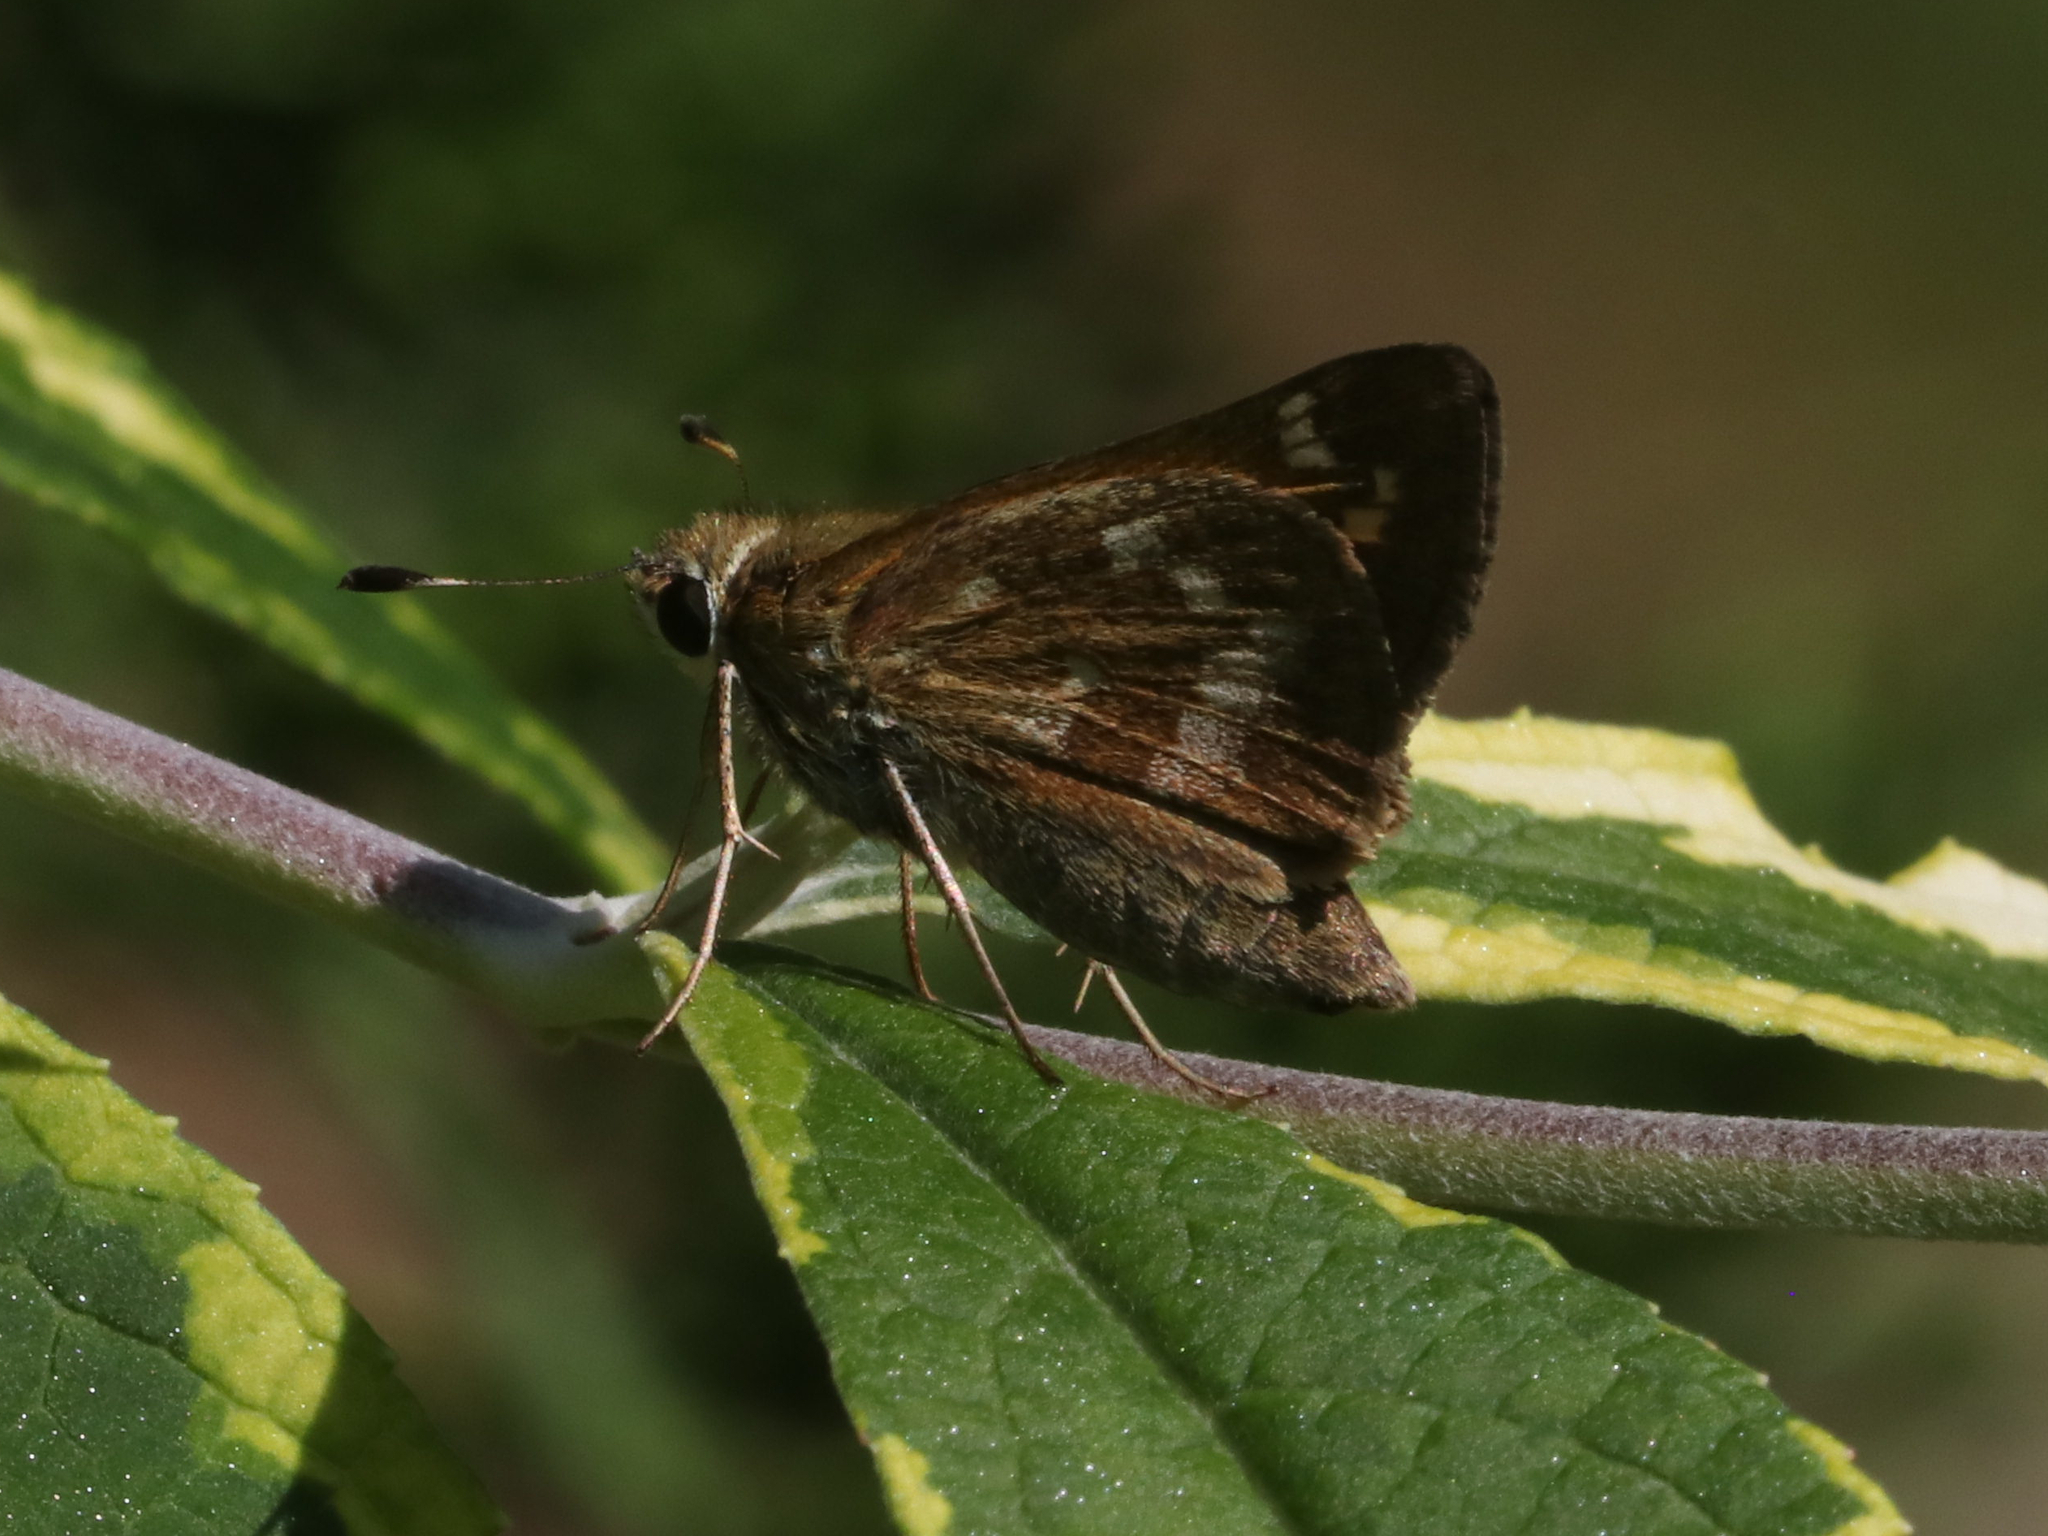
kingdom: Animalia
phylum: Arthropoda
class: Insecta
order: Lepidoptera
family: Hesperiidae
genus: Atalopedes
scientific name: Atalopedes
